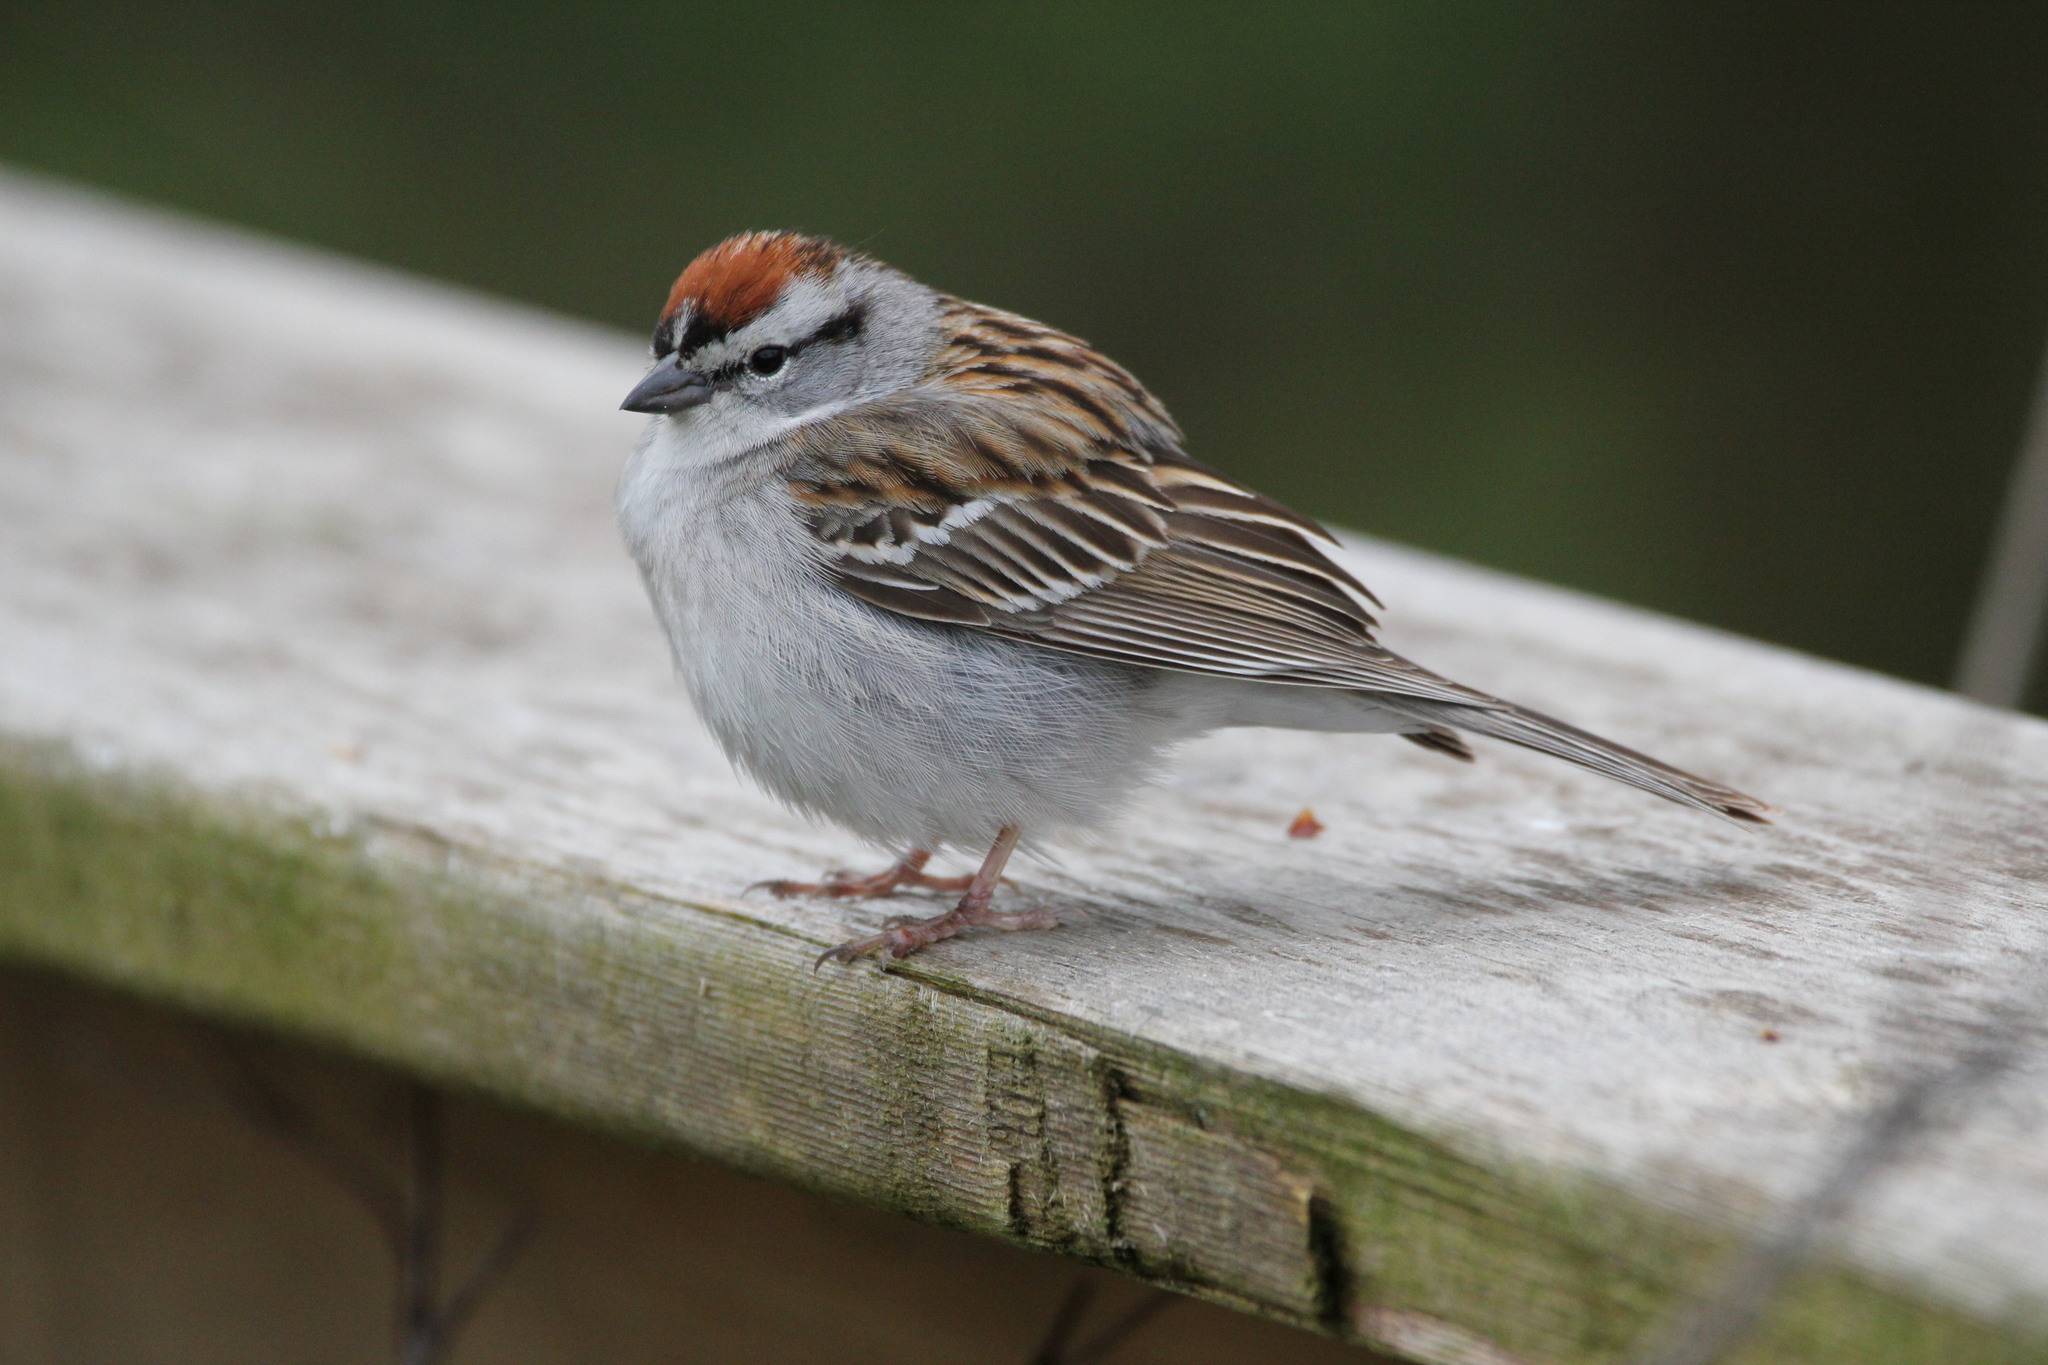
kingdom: Animalia
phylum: Chordata
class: Aves
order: Passeriformes
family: Passerellidae
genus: Spizella
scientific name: Spizella passerina
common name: Chipping sparrow
